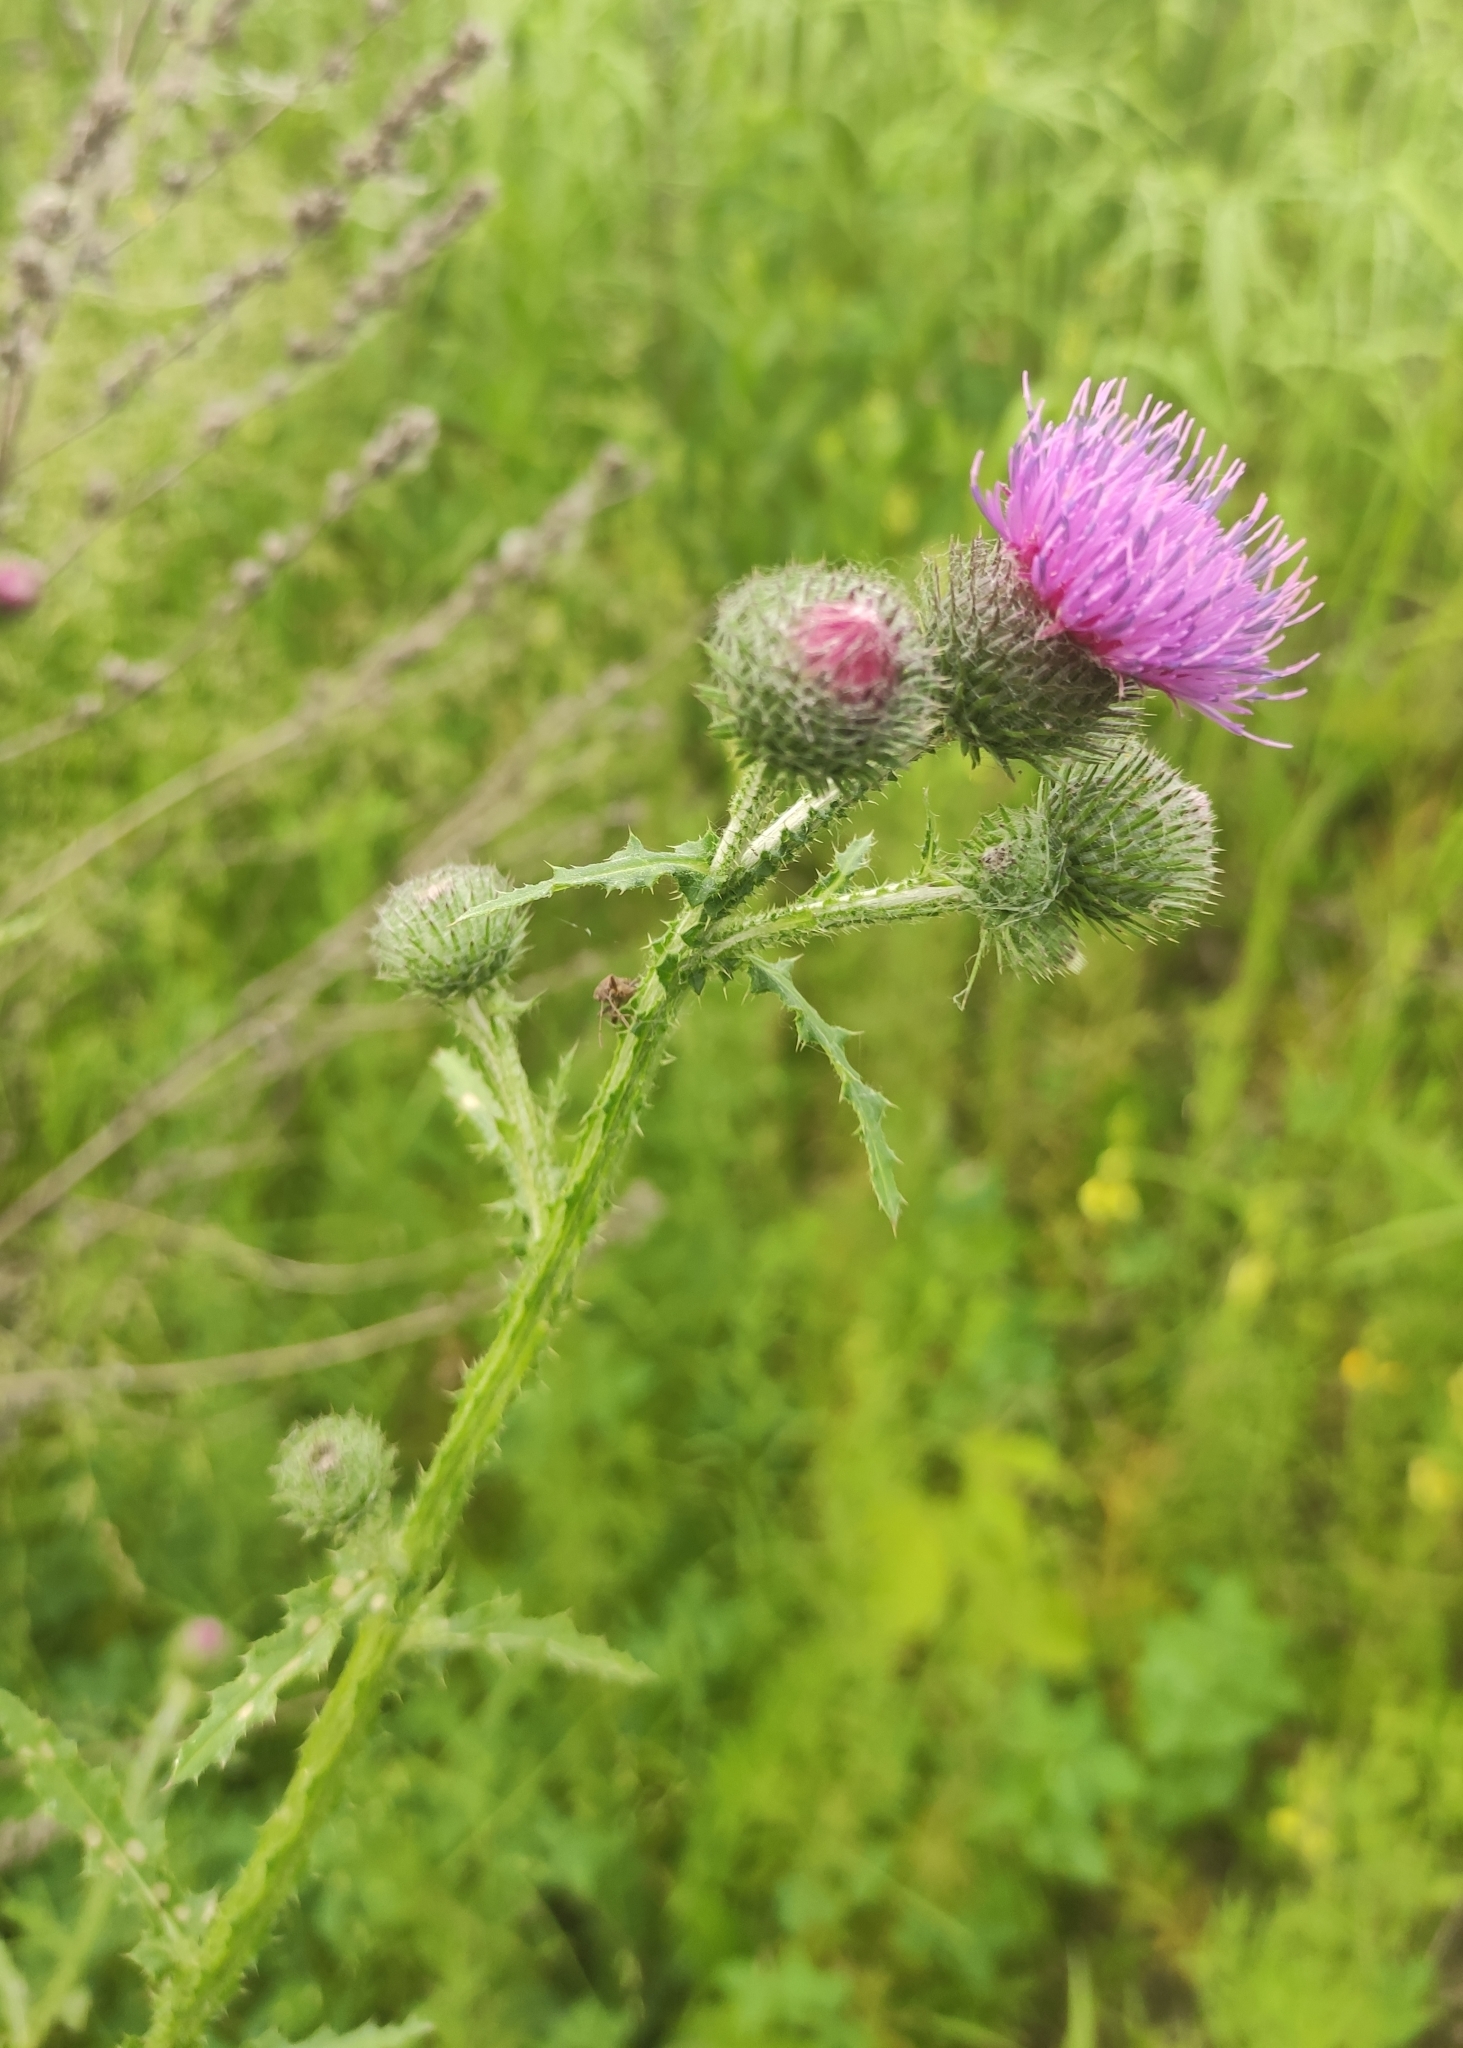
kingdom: Plantae
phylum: Tracheophyta
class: Magnoliopsida
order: Asterales
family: Asteraceae
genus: Carduus
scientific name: Carduus crispus
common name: Welted thistle
